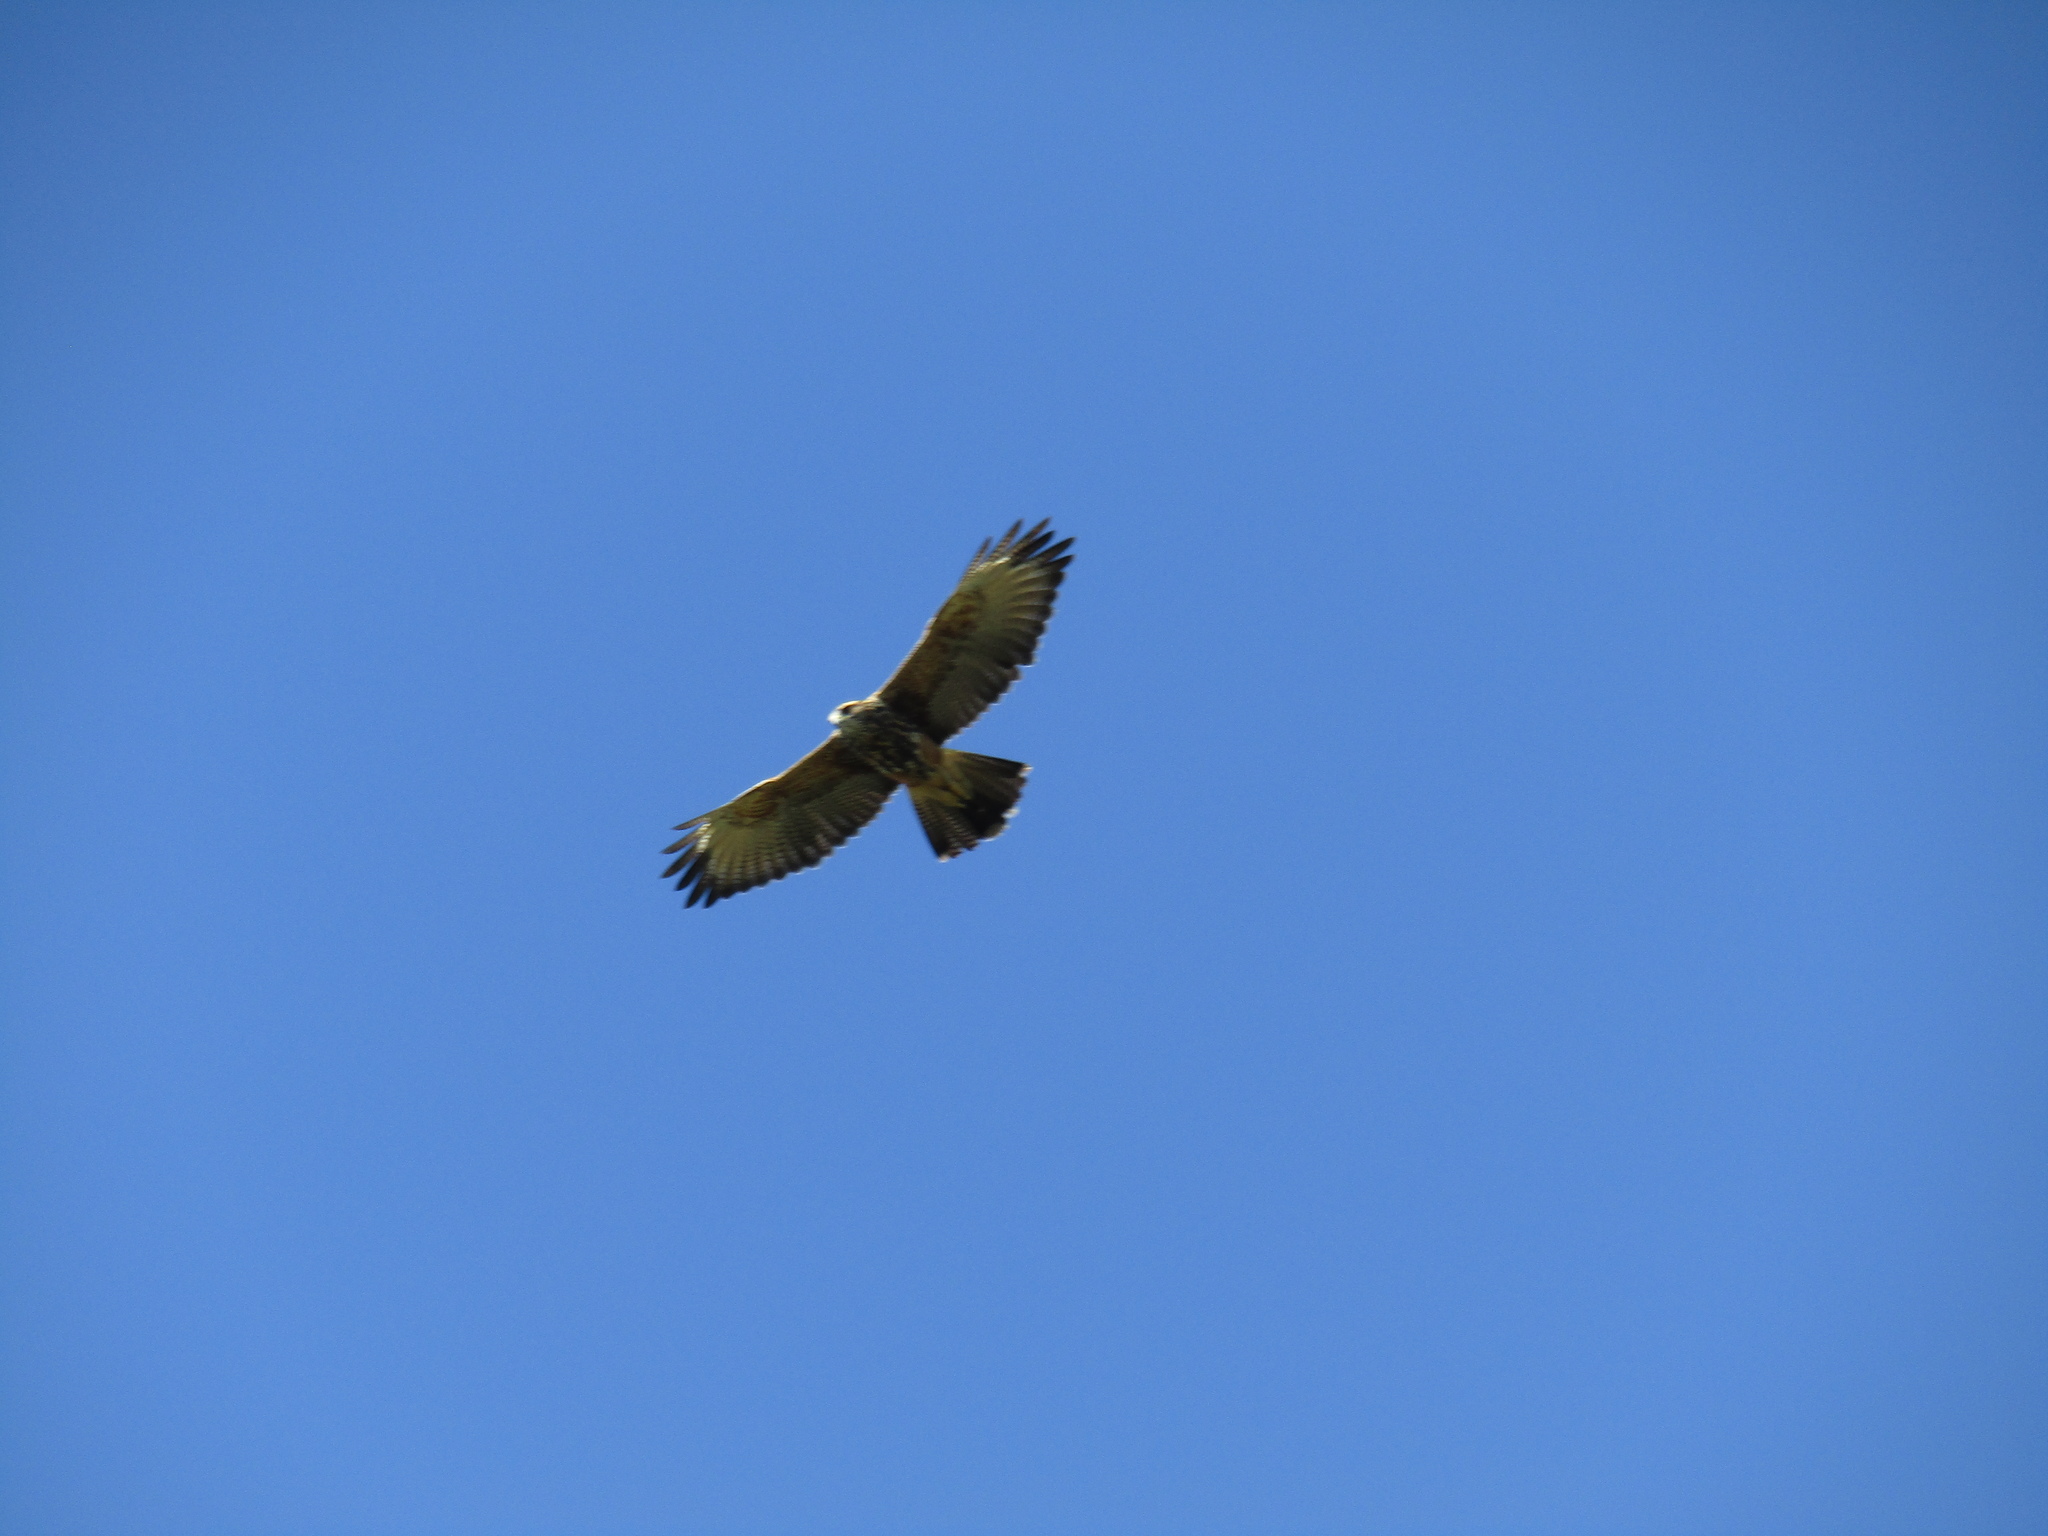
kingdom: Animalia
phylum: Chordata
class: Aves
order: Accipitriformes
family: Accipitridae
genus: Parabuteo
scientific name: Parabuteo unicinctus
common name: Harris's hawk
